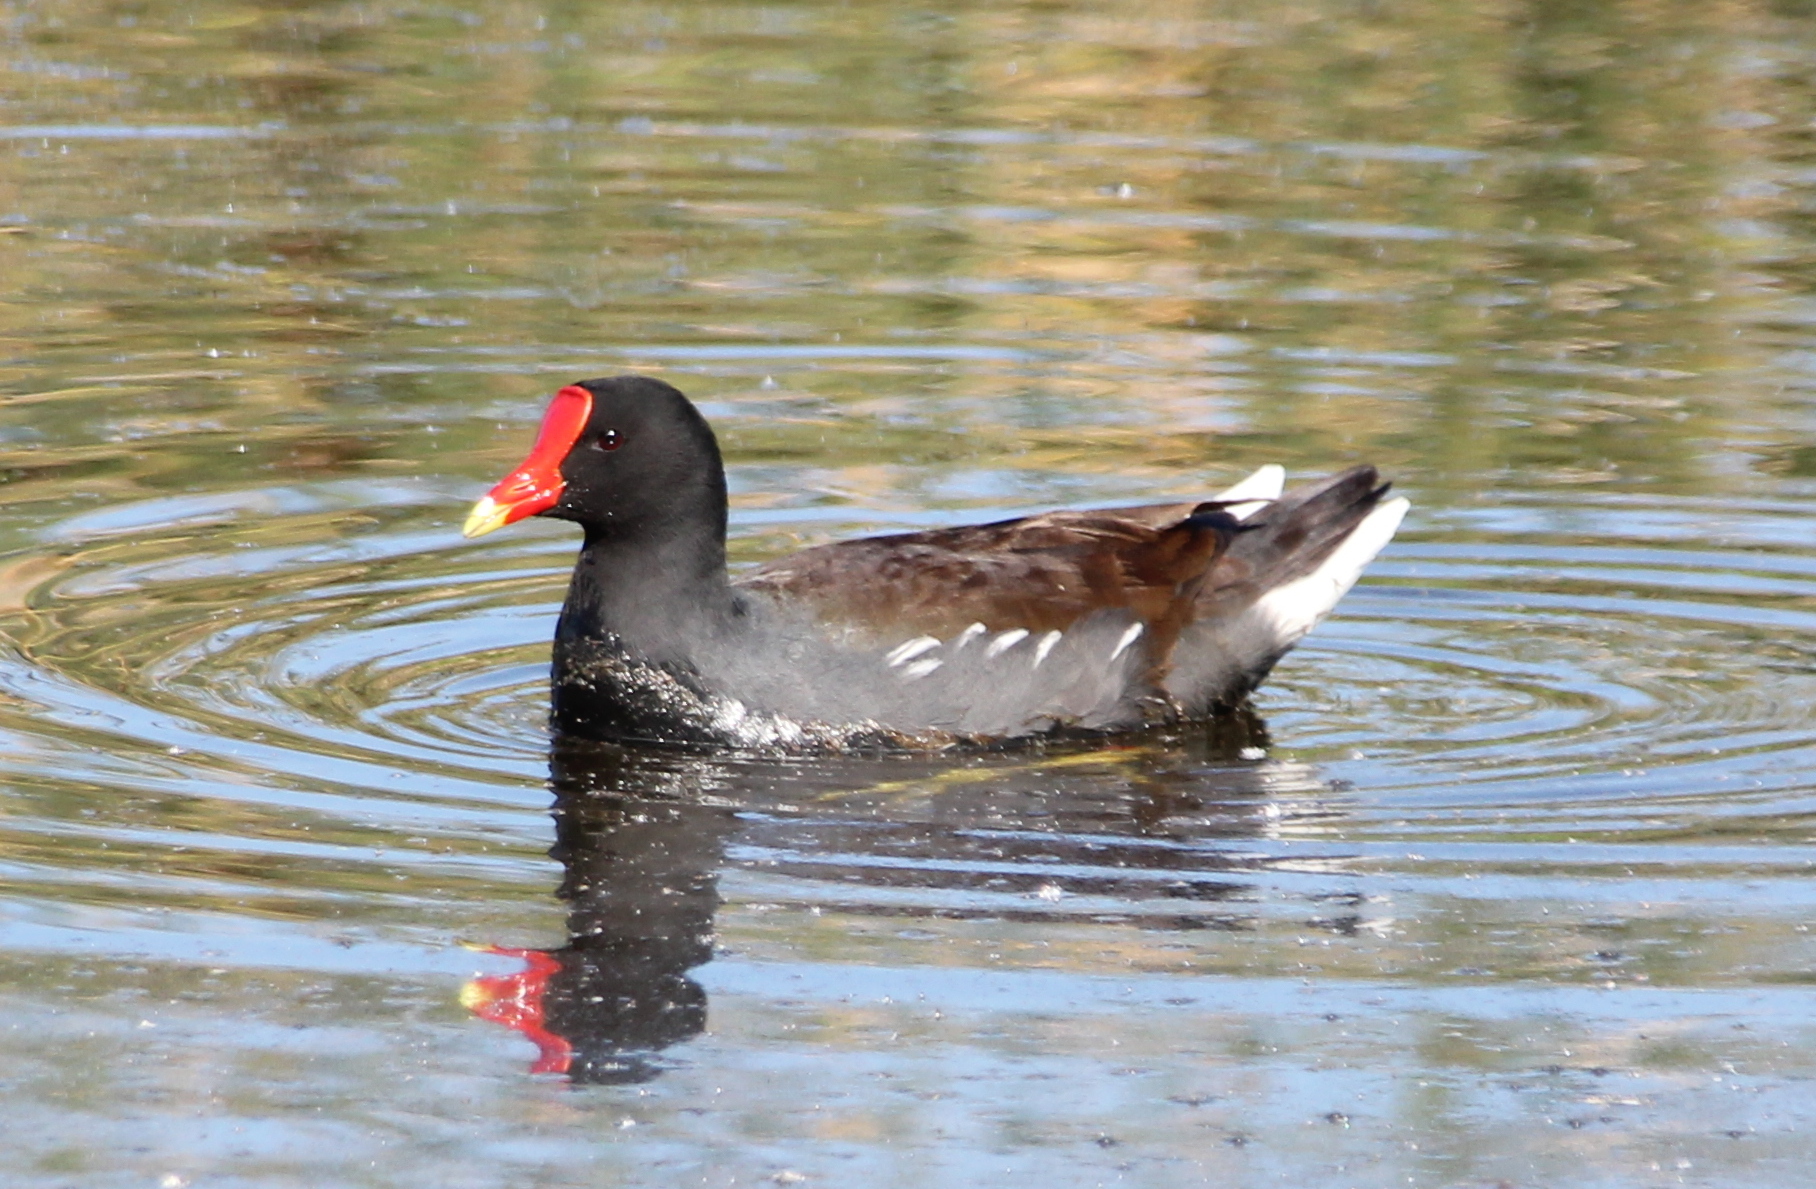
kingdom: Animalia
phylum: Chordata
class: Aves
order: Gruiformes
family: Rallidae
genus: Gallinula
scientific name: Gallinula chloropus
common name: Common moorhen
